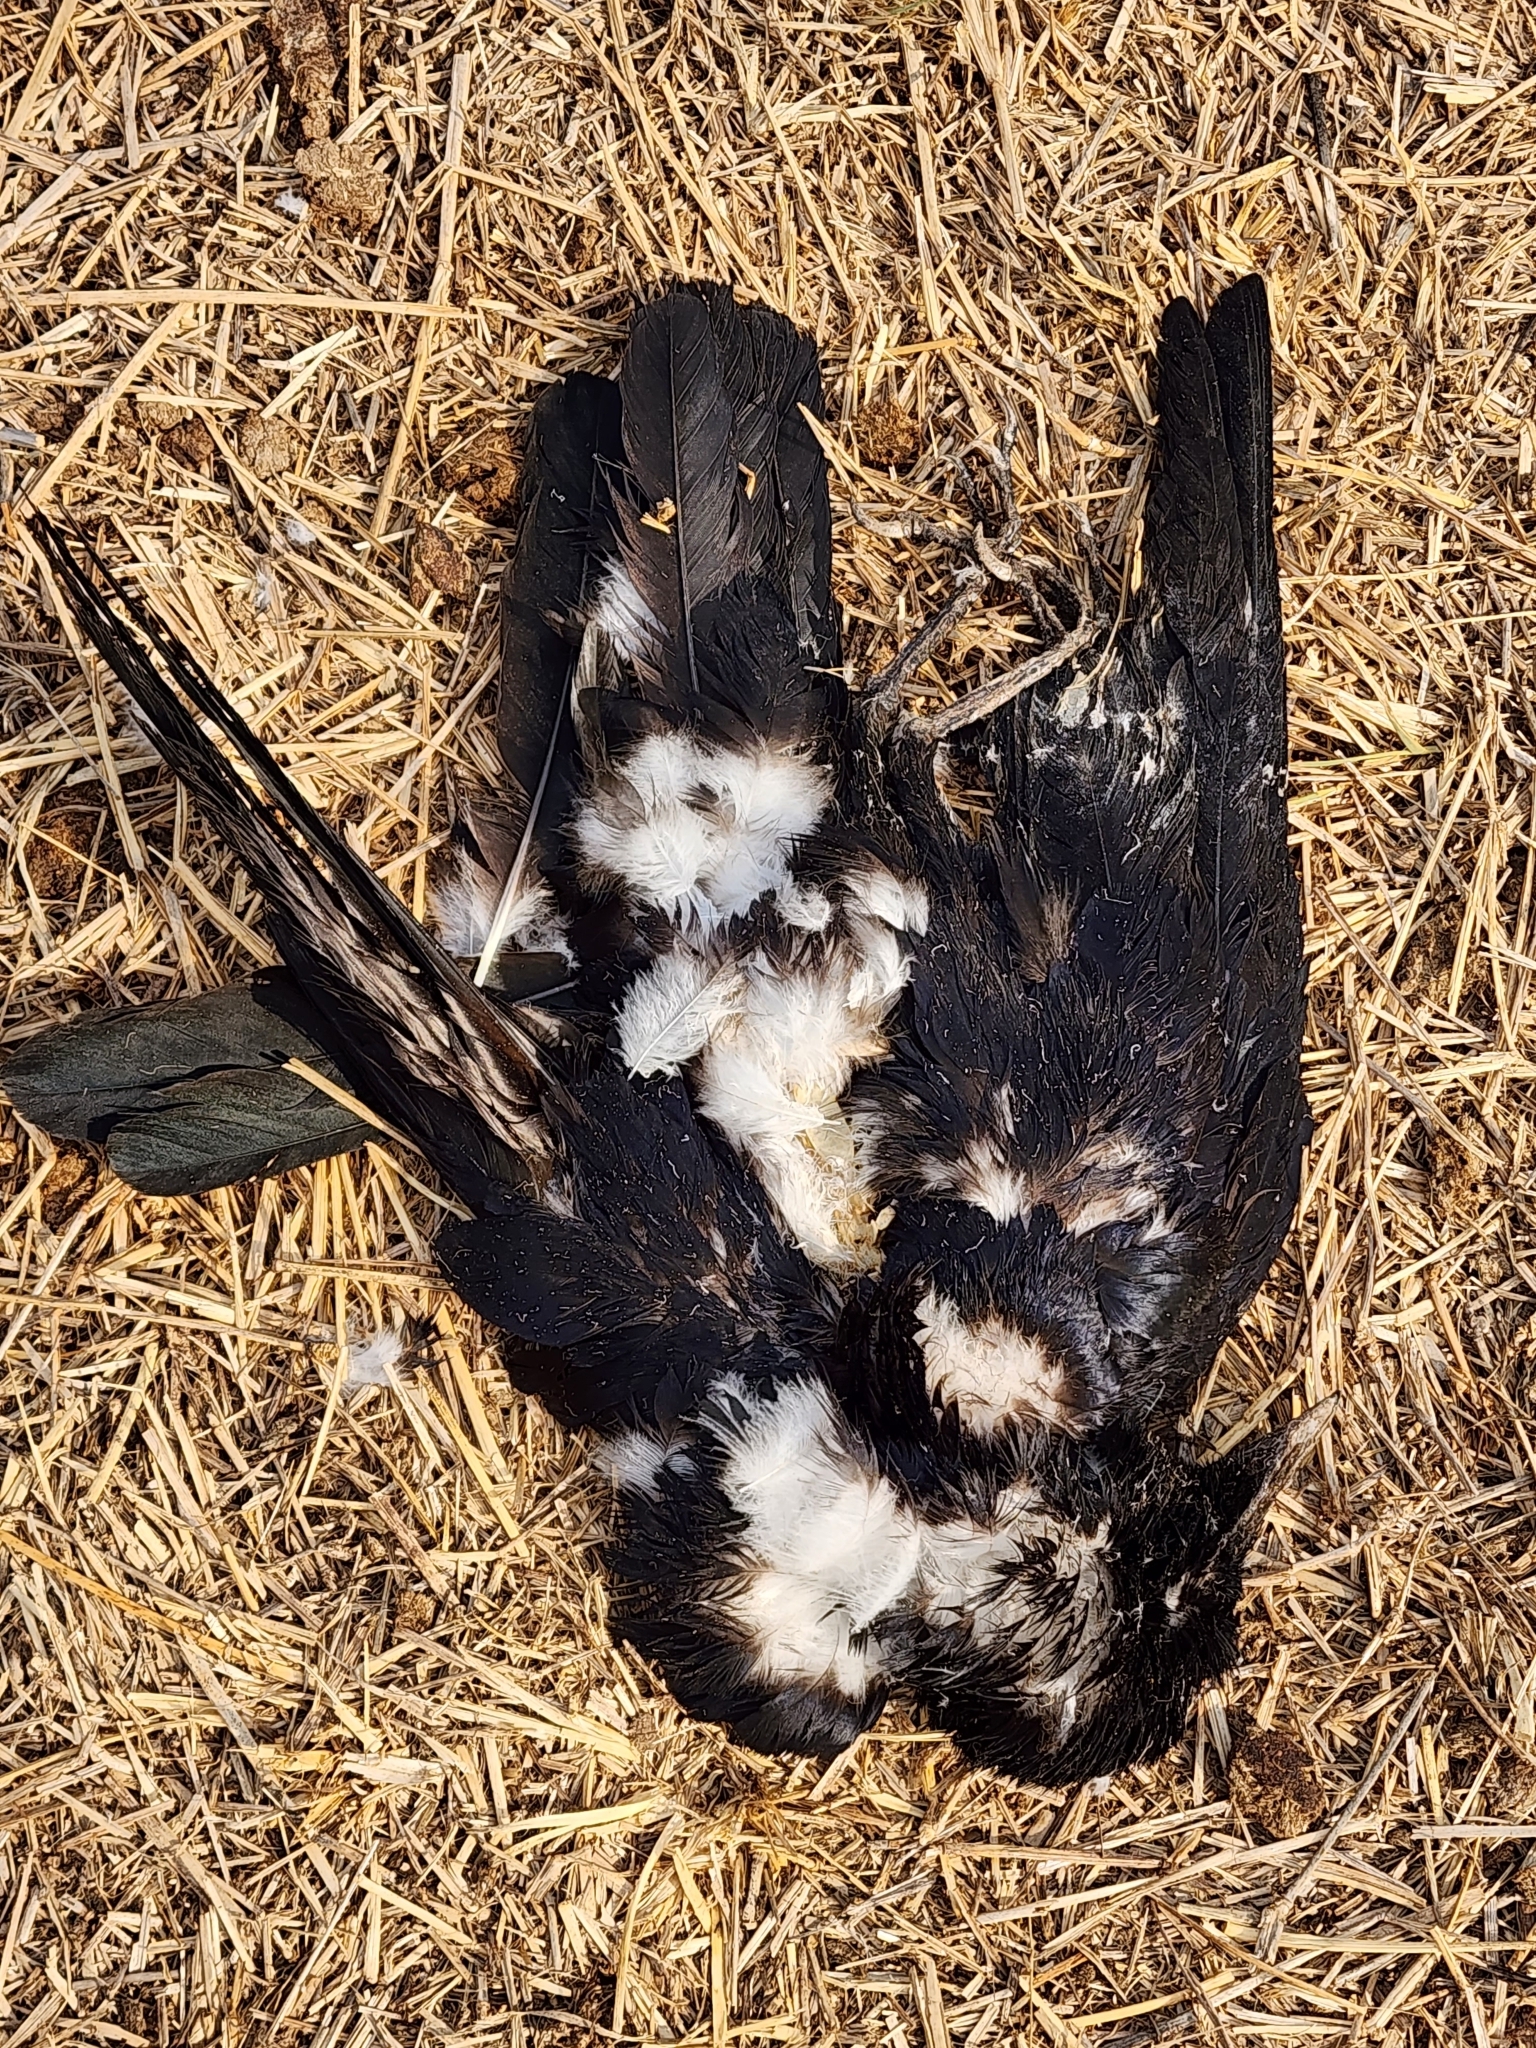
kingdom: Animalia
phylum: Chordata
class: Aves
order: Passeriformes
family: Cracticidae
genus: Gymnorhina
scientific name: Gymnorhina tibicen
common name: Australian magpie
